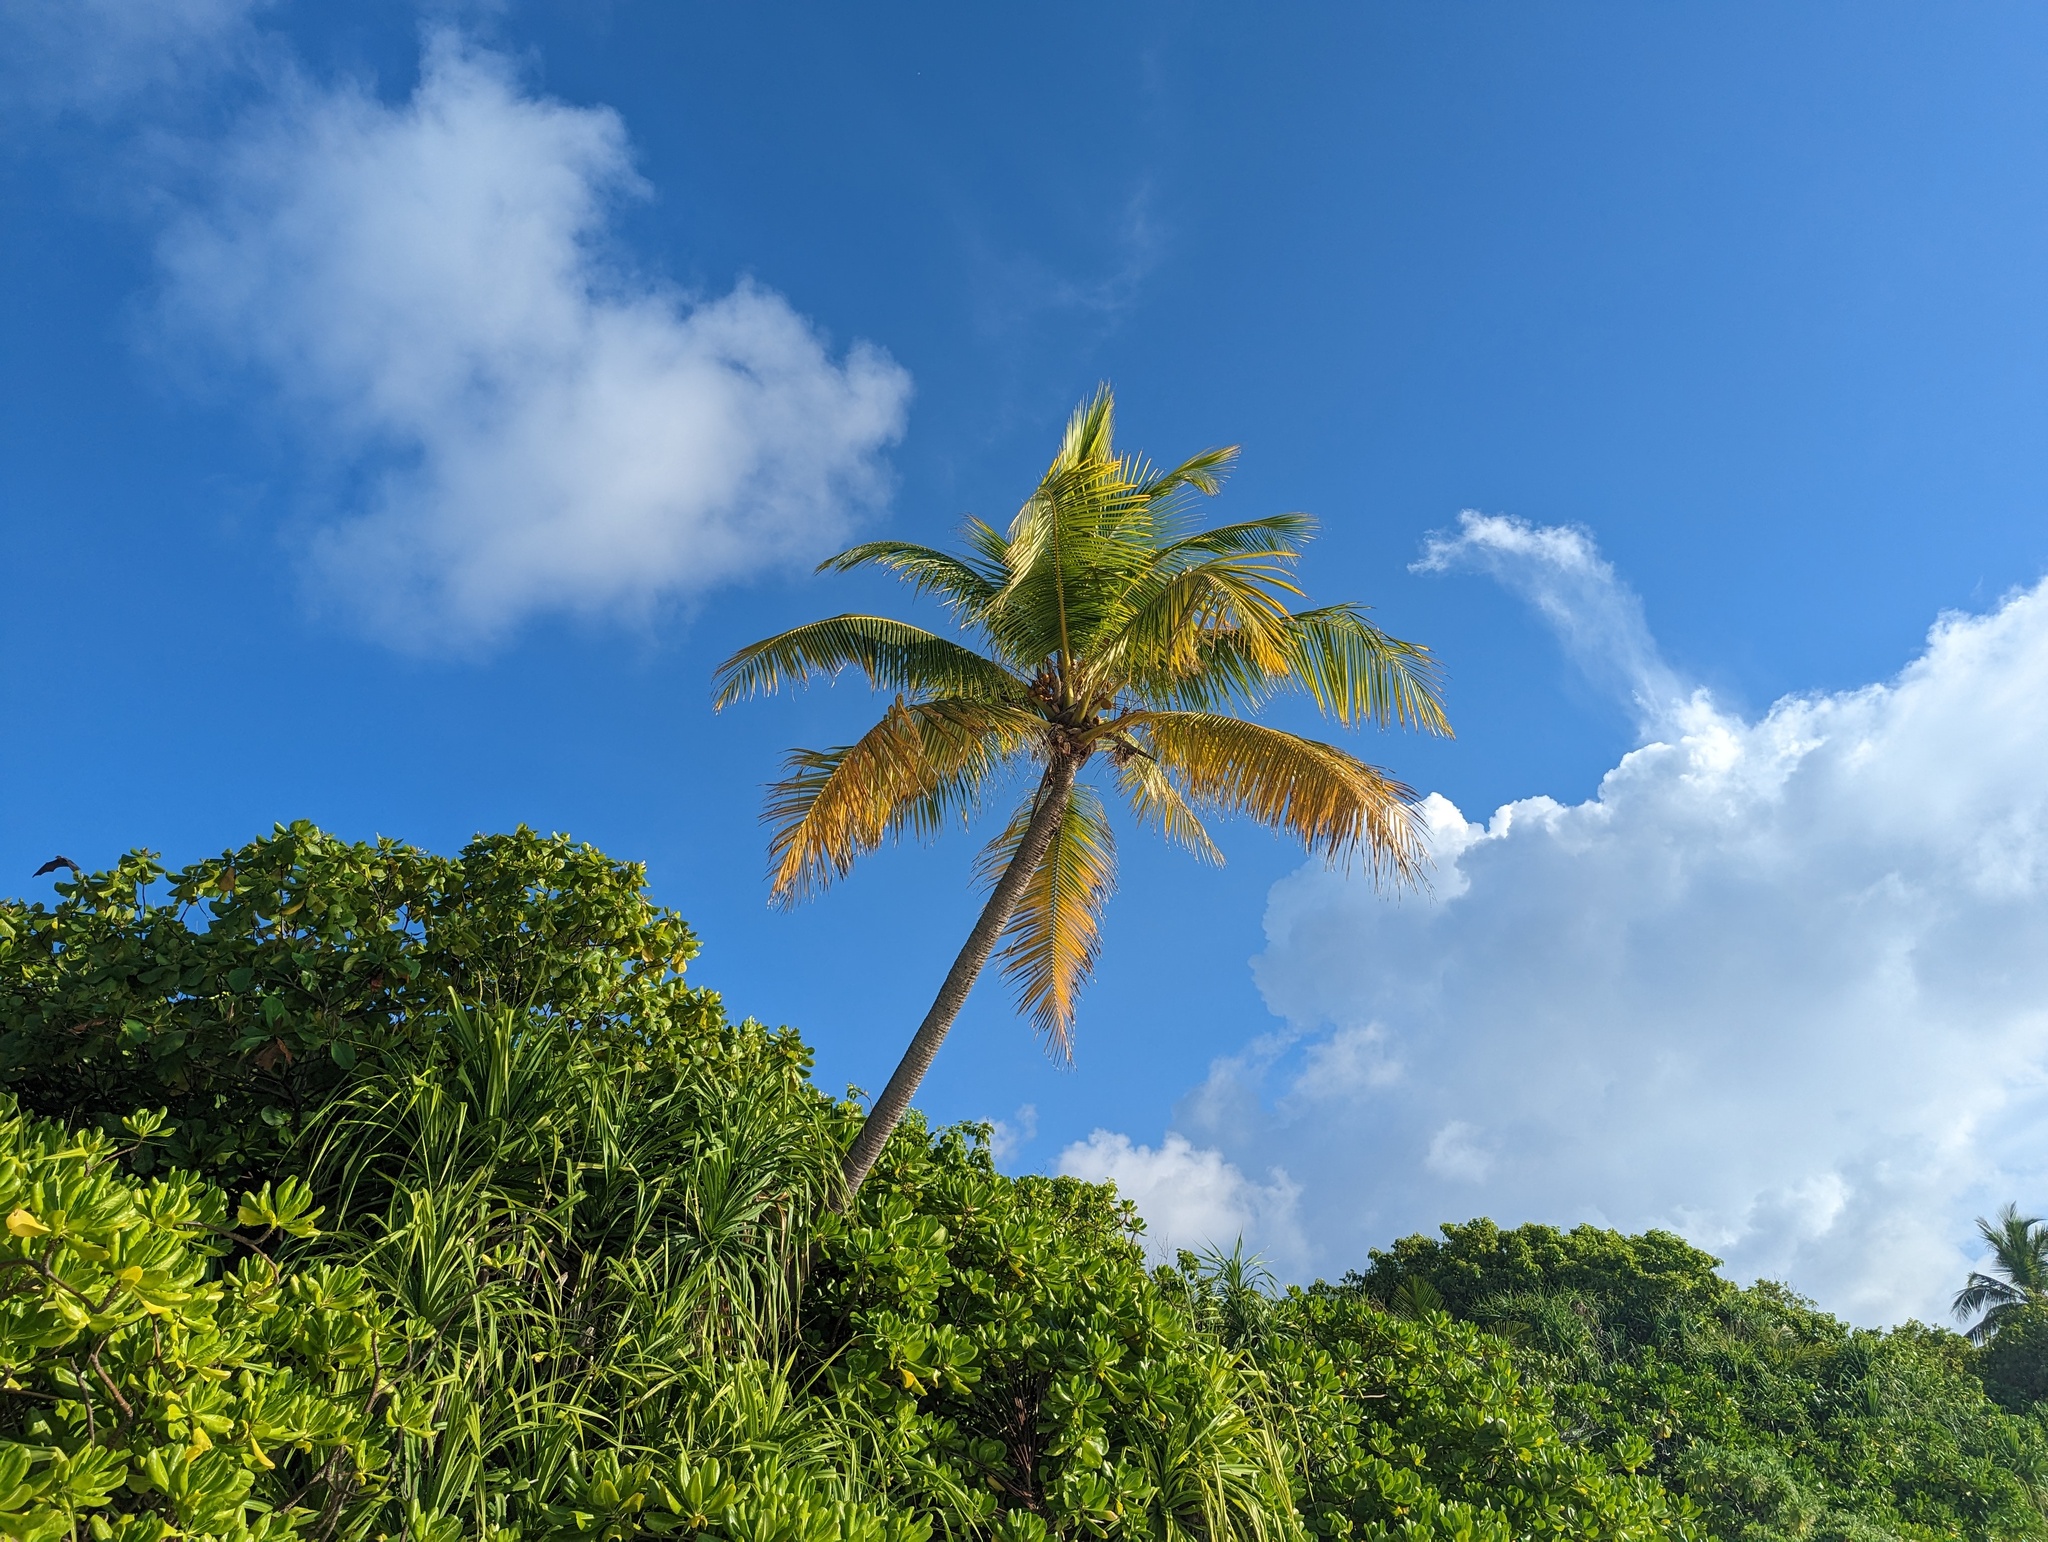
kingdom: Plantae
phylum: Tracheophyta
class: Liliopsida
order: Arecales
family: Arecaceae
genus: Cocos
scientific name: Cocos nucifera
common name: Coconut palm
